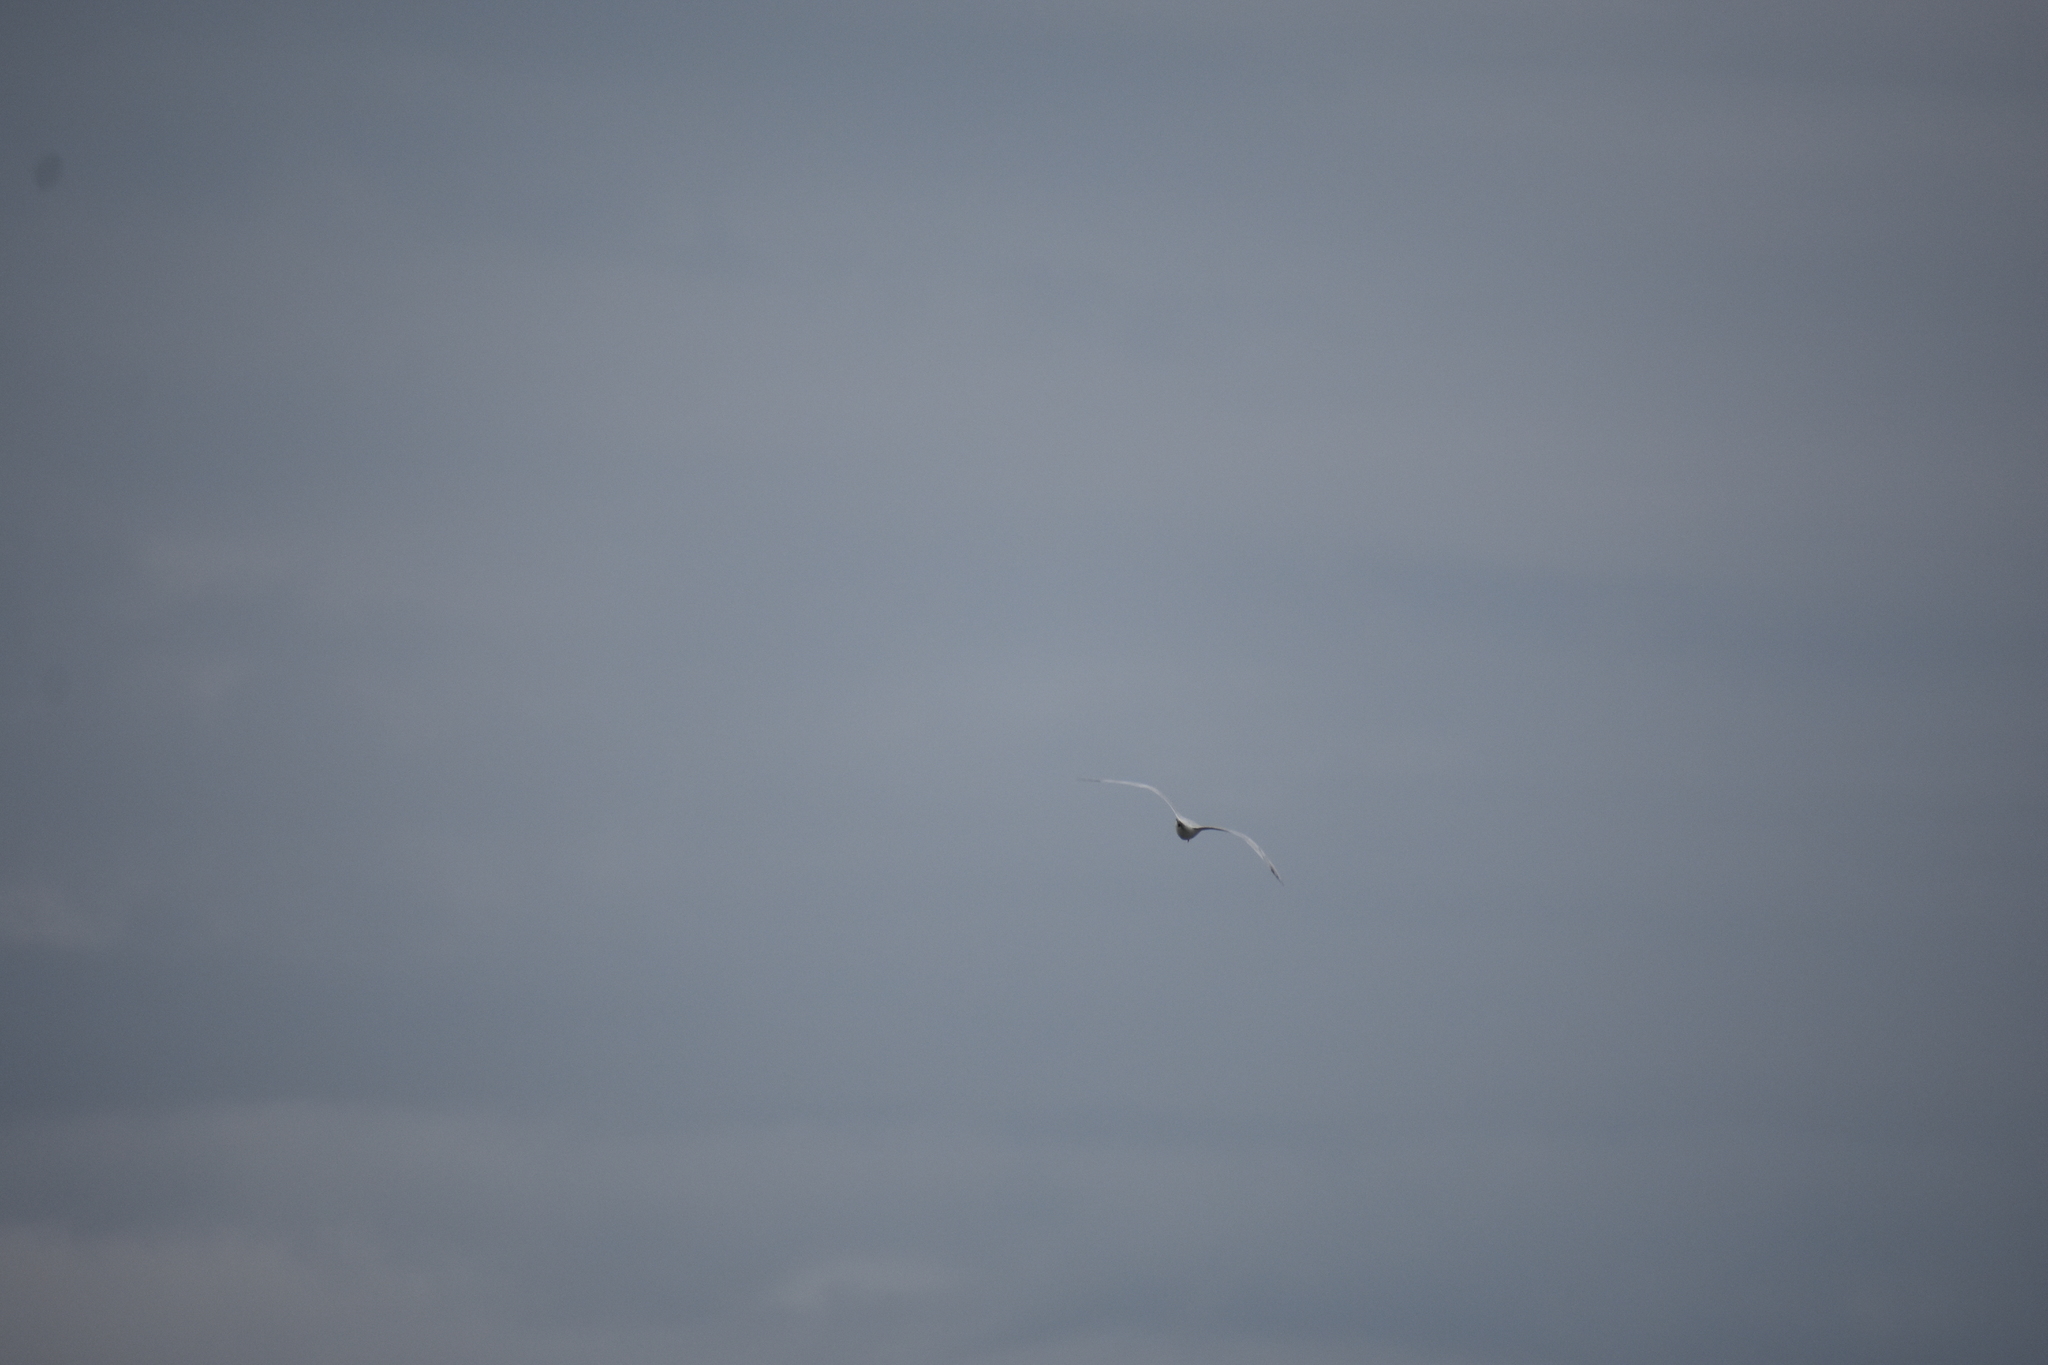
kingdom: Animalia
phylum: Chordata
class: Aves
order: Charadriiformes
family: Laridae
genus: Thalasseus
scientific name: Thalasseus maximus
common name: Royal tern
